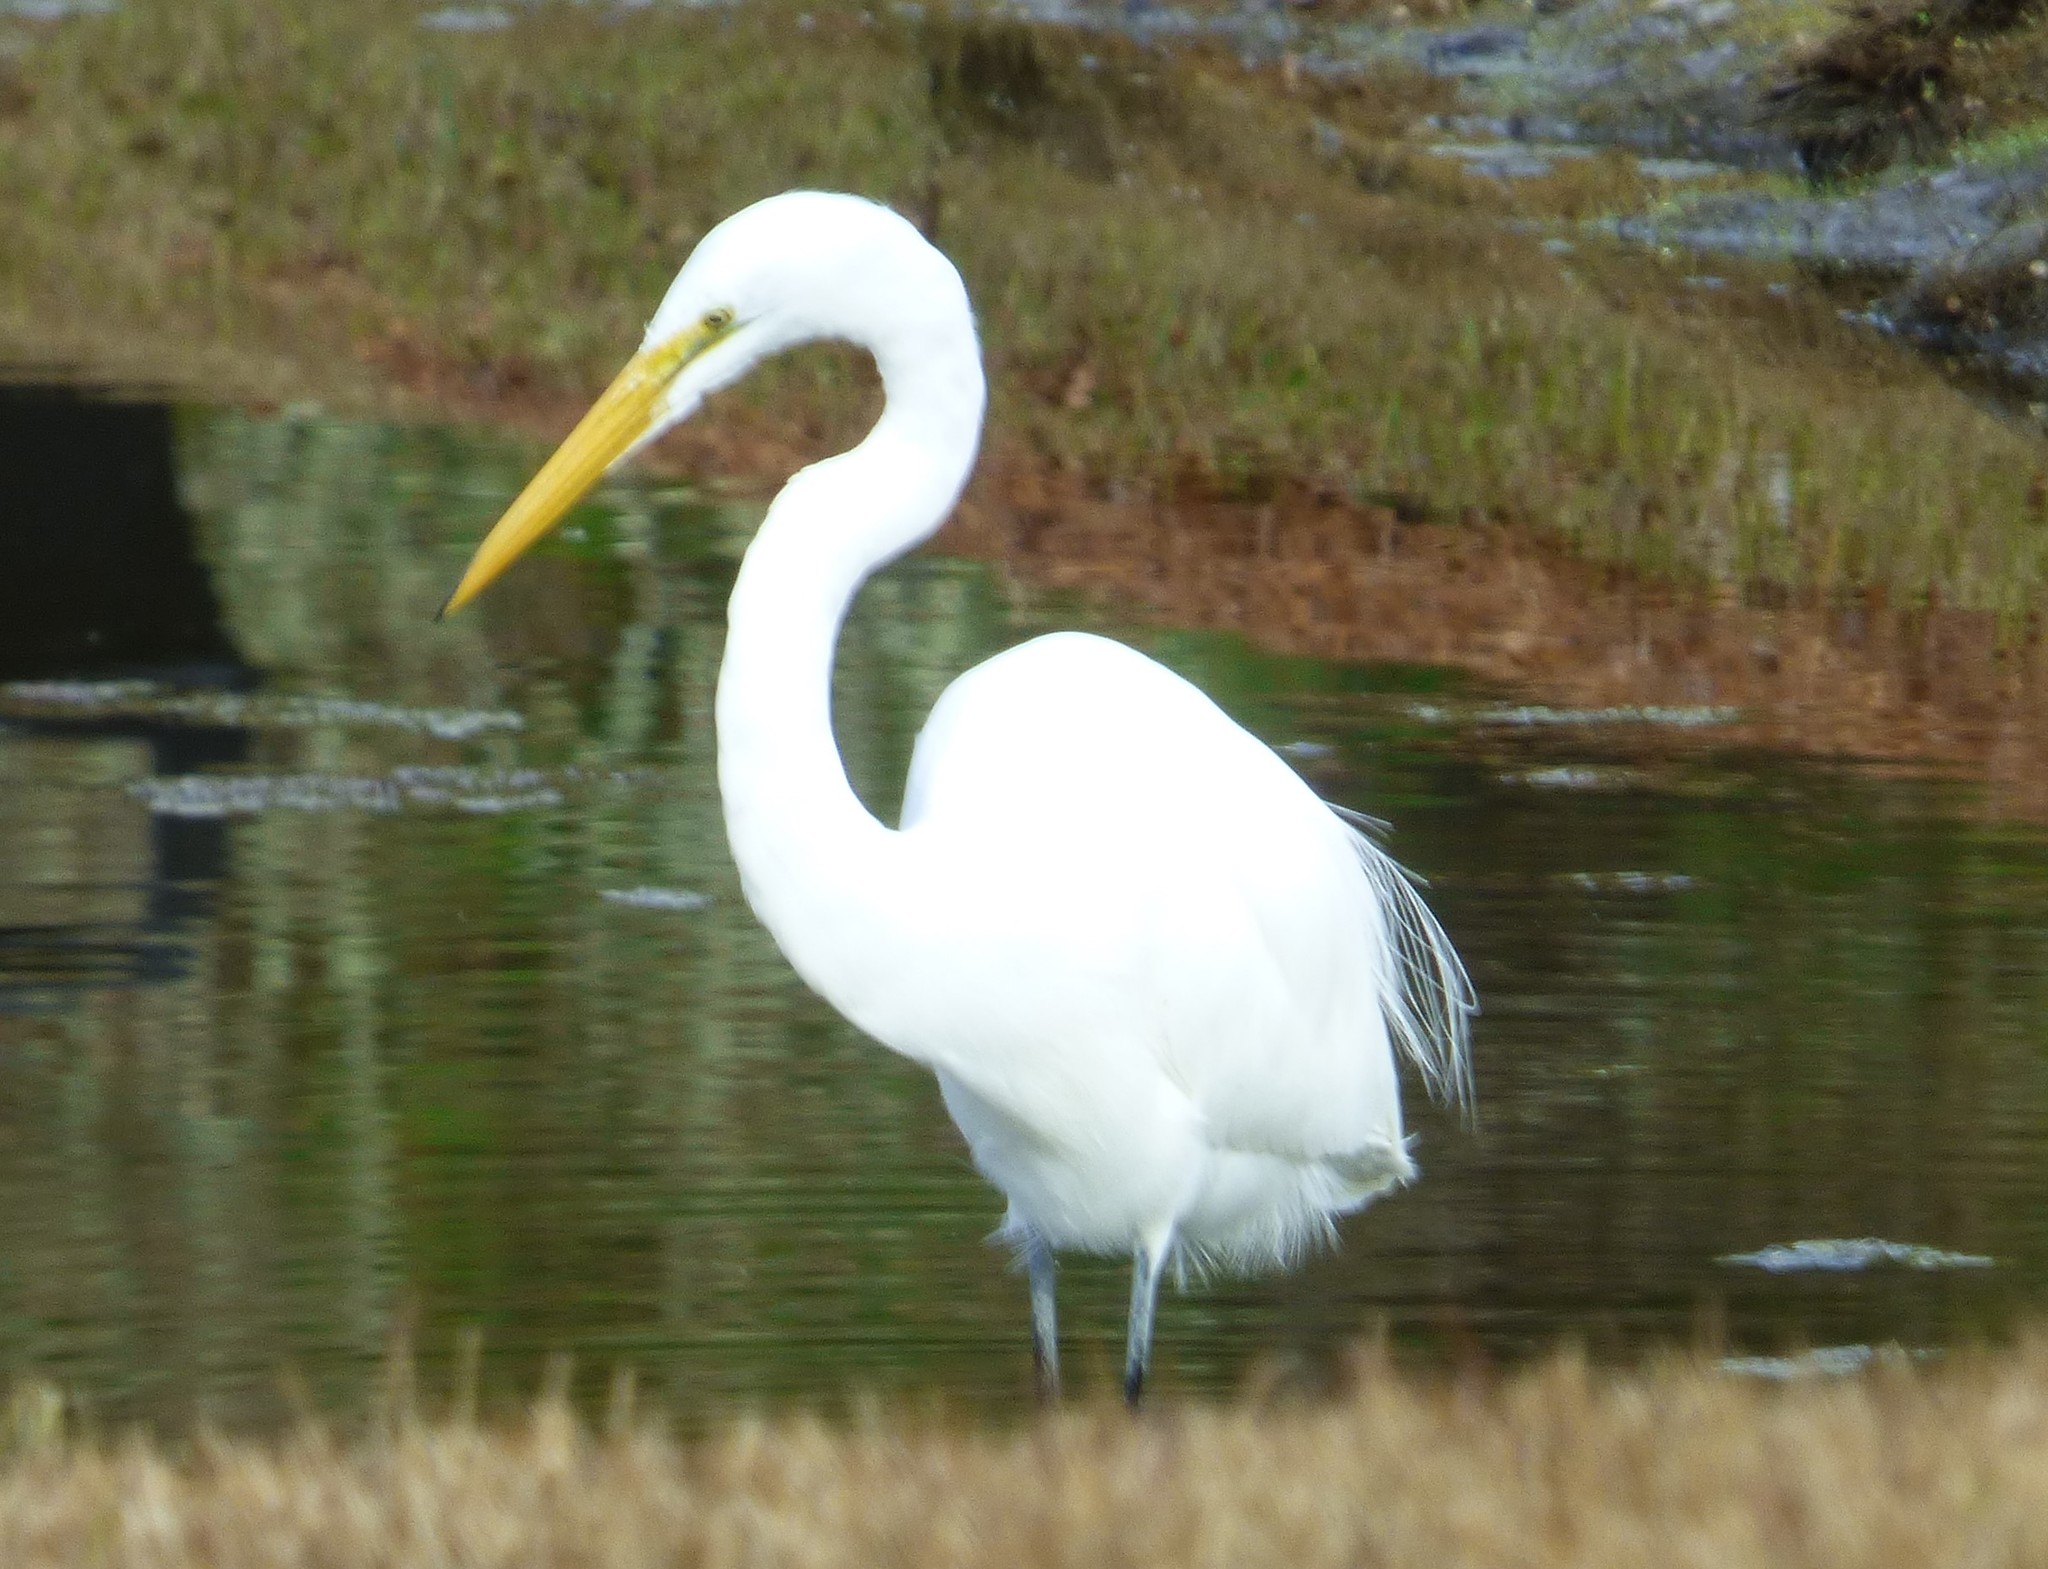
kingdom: Animalia
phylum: Chordata
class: Aves
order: Pelecaniformes
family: Ardeidae
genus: Ardea
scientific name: Ardea alba
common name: Great egret
